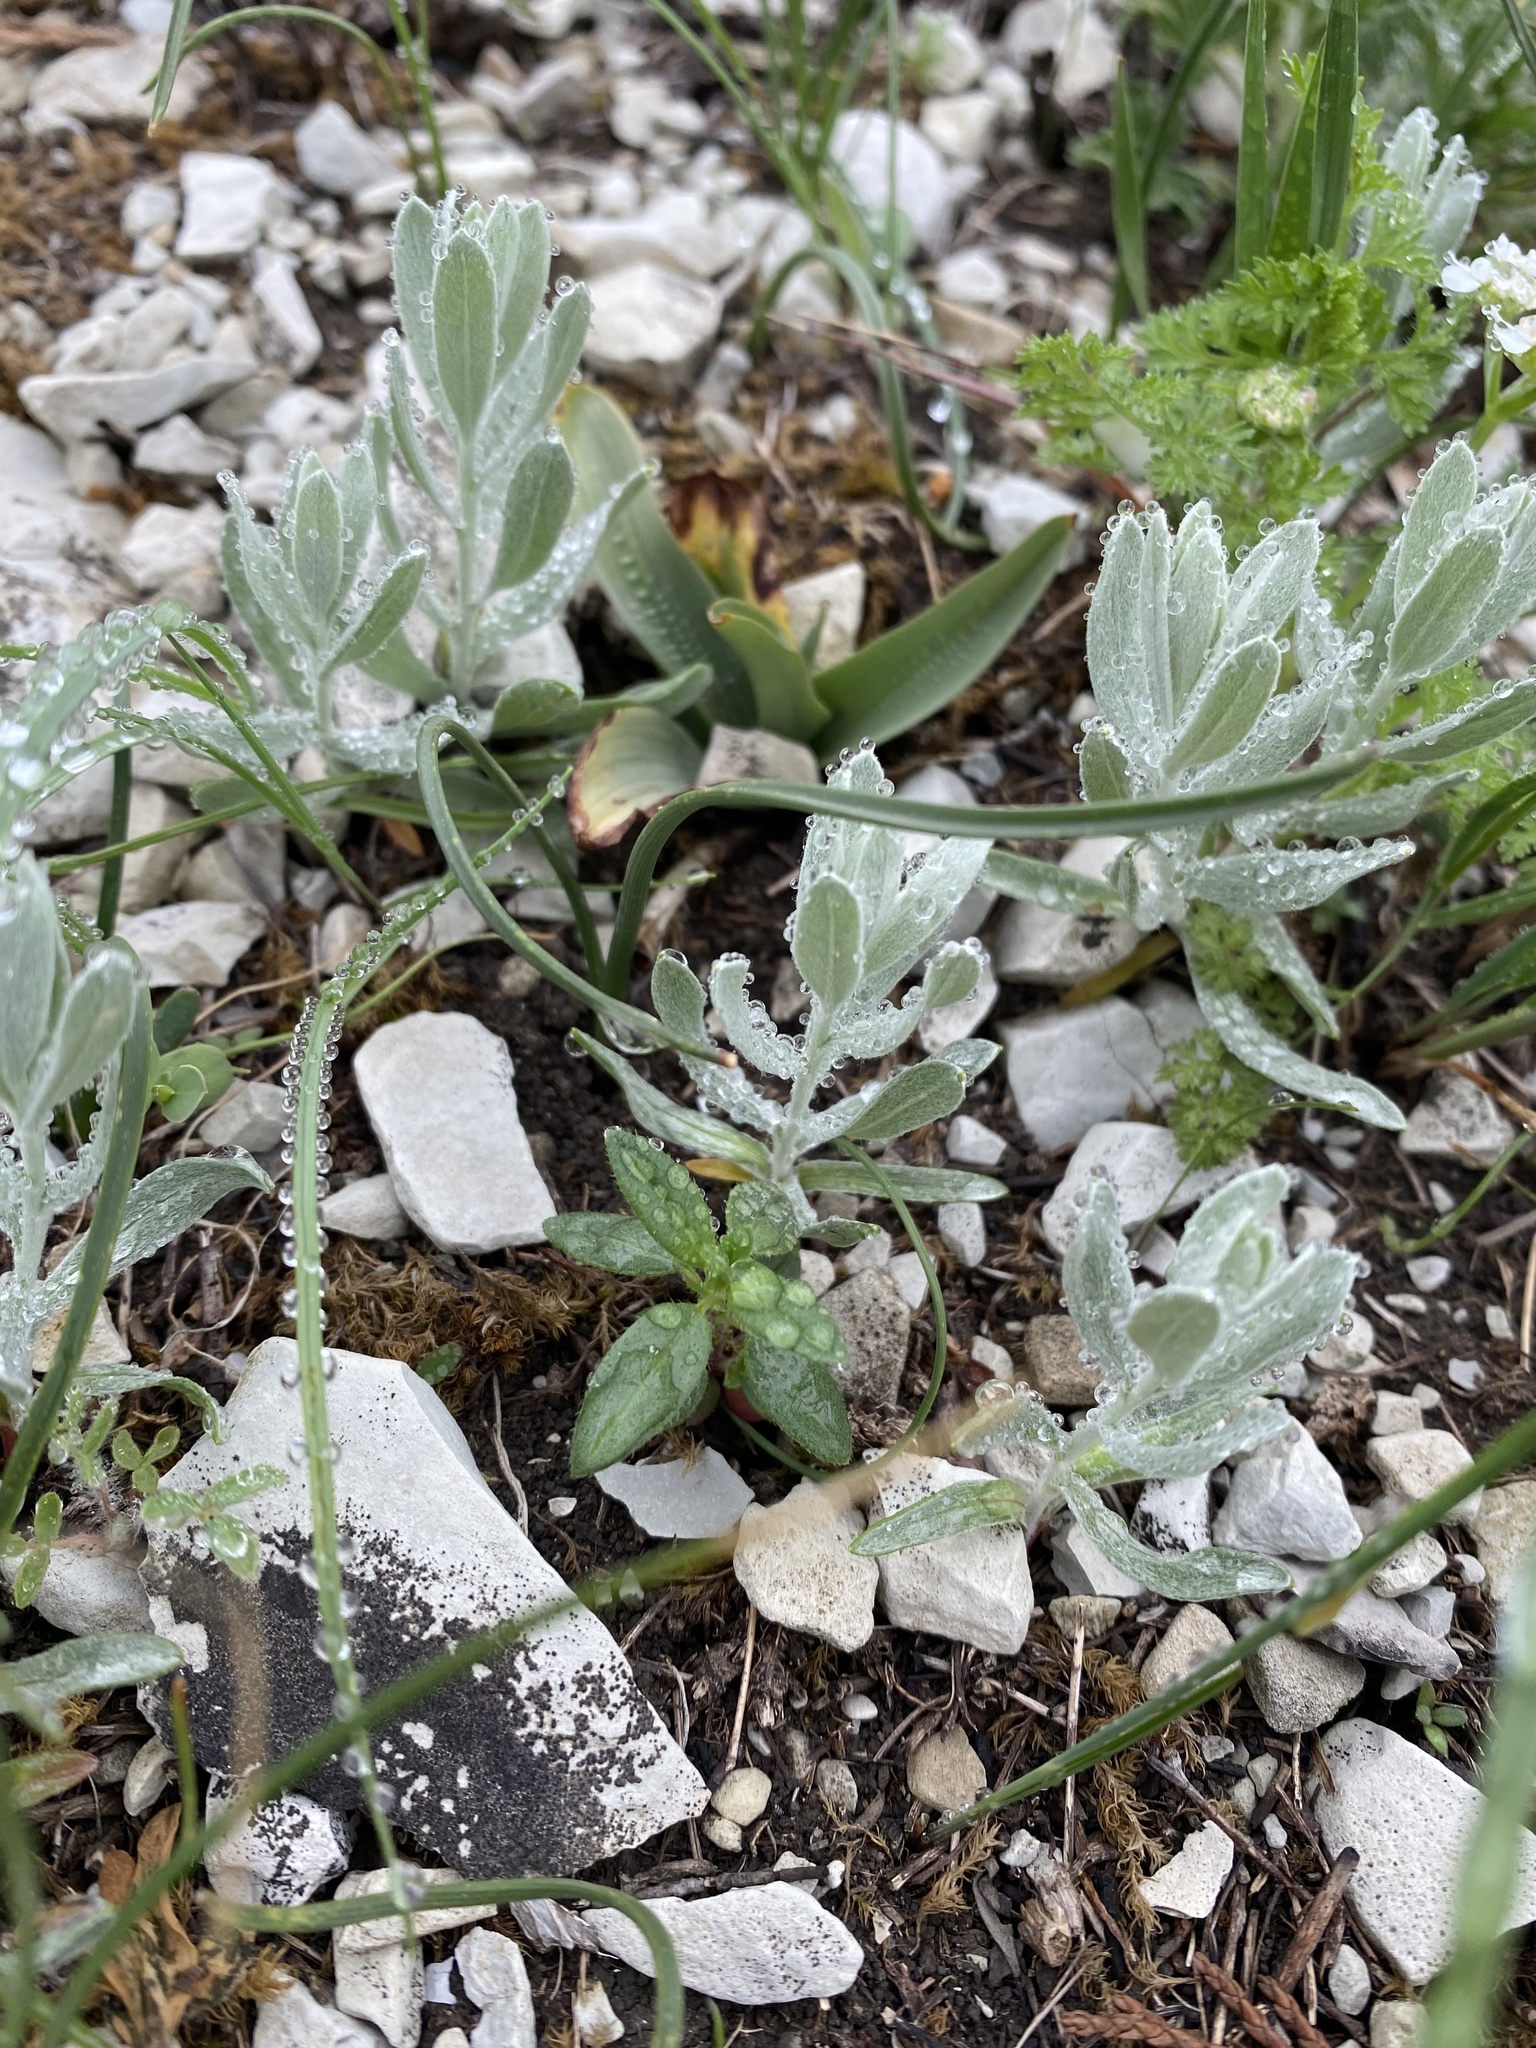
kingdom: Plantae
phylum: Tracheophyta
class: Magnoliopsida
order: Asterales
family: Asteraceae
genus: Galatella
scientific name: Galatella villosa
